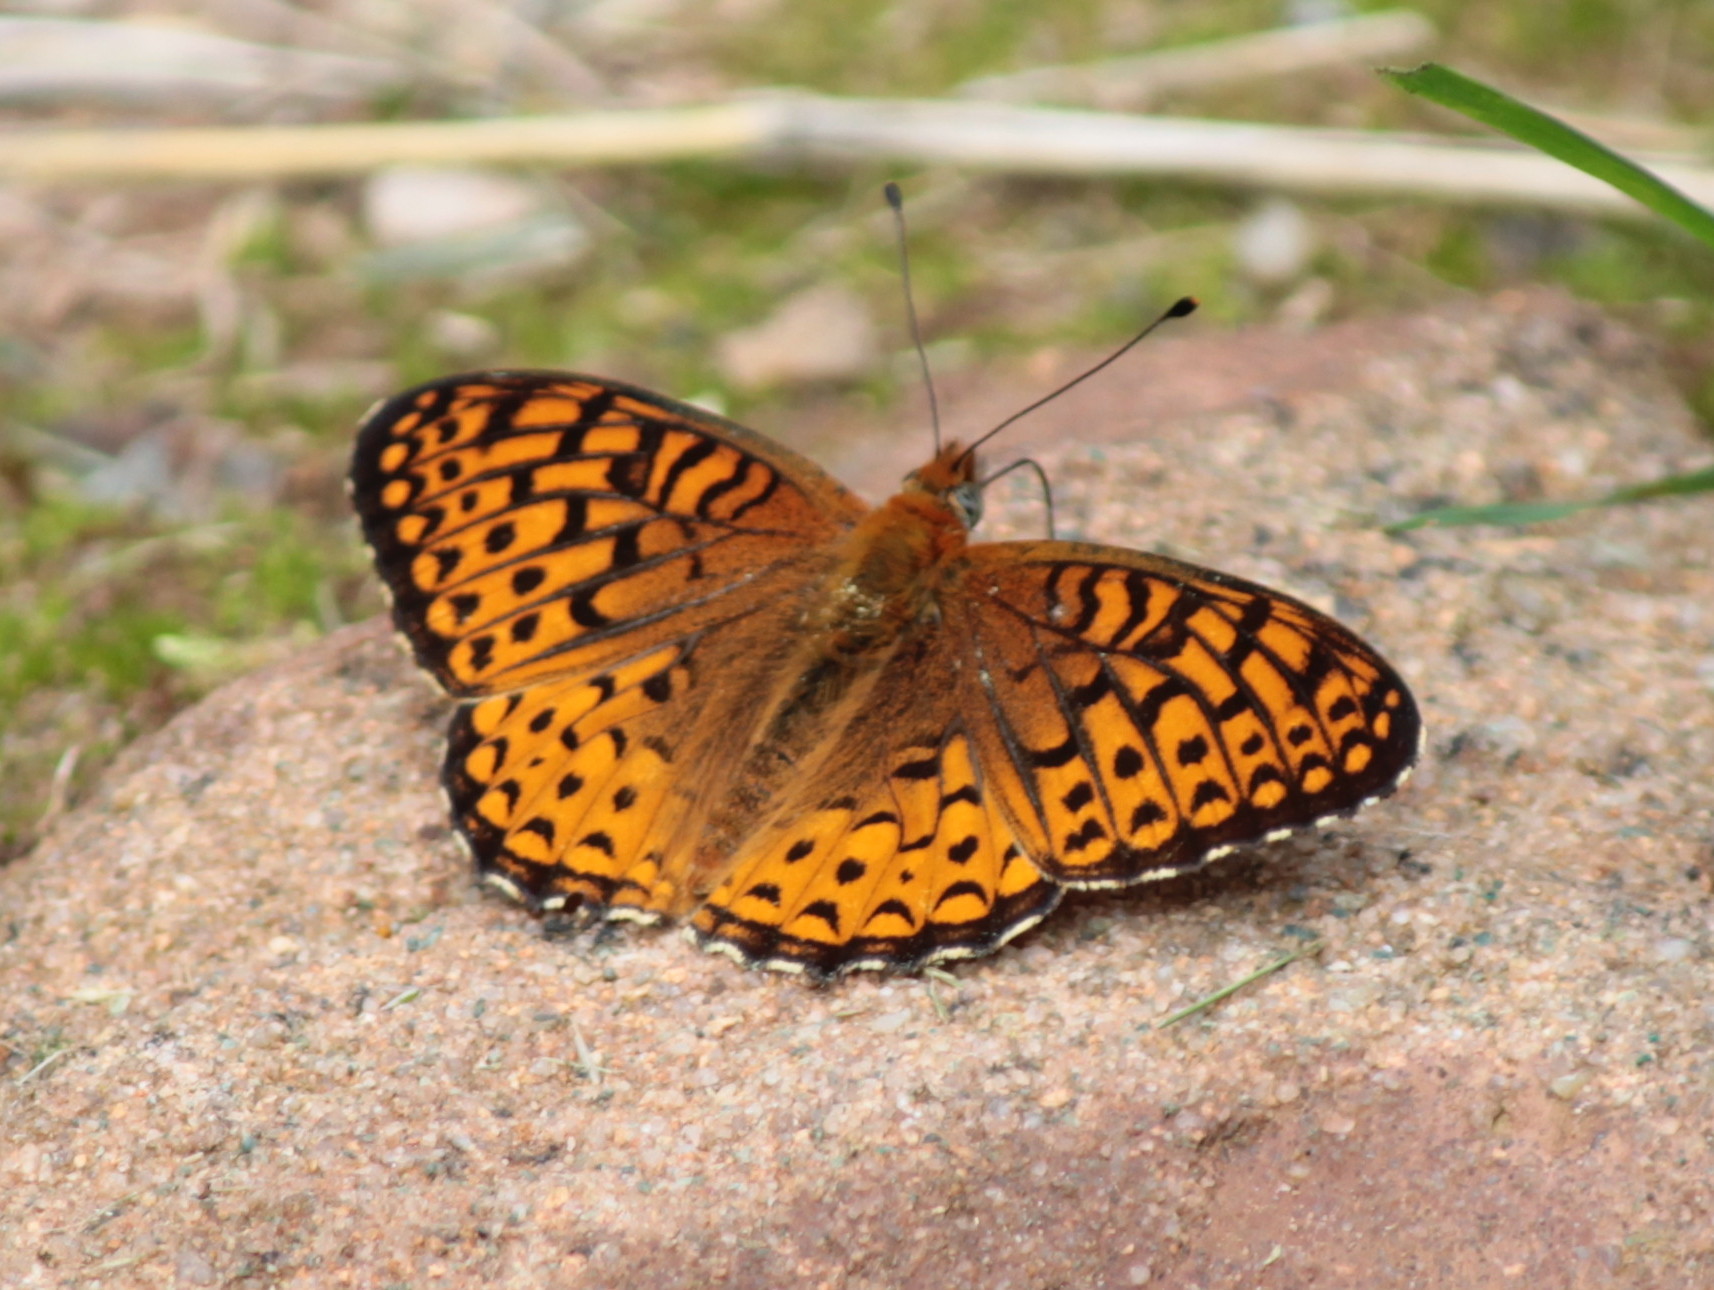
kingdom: Animalia
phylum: Arthropoda
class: Insecta
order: Lepidoptera
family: Nymphalidae
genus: Speyeria
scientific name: Speyeria atlantis
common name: Atlantis fritillary
